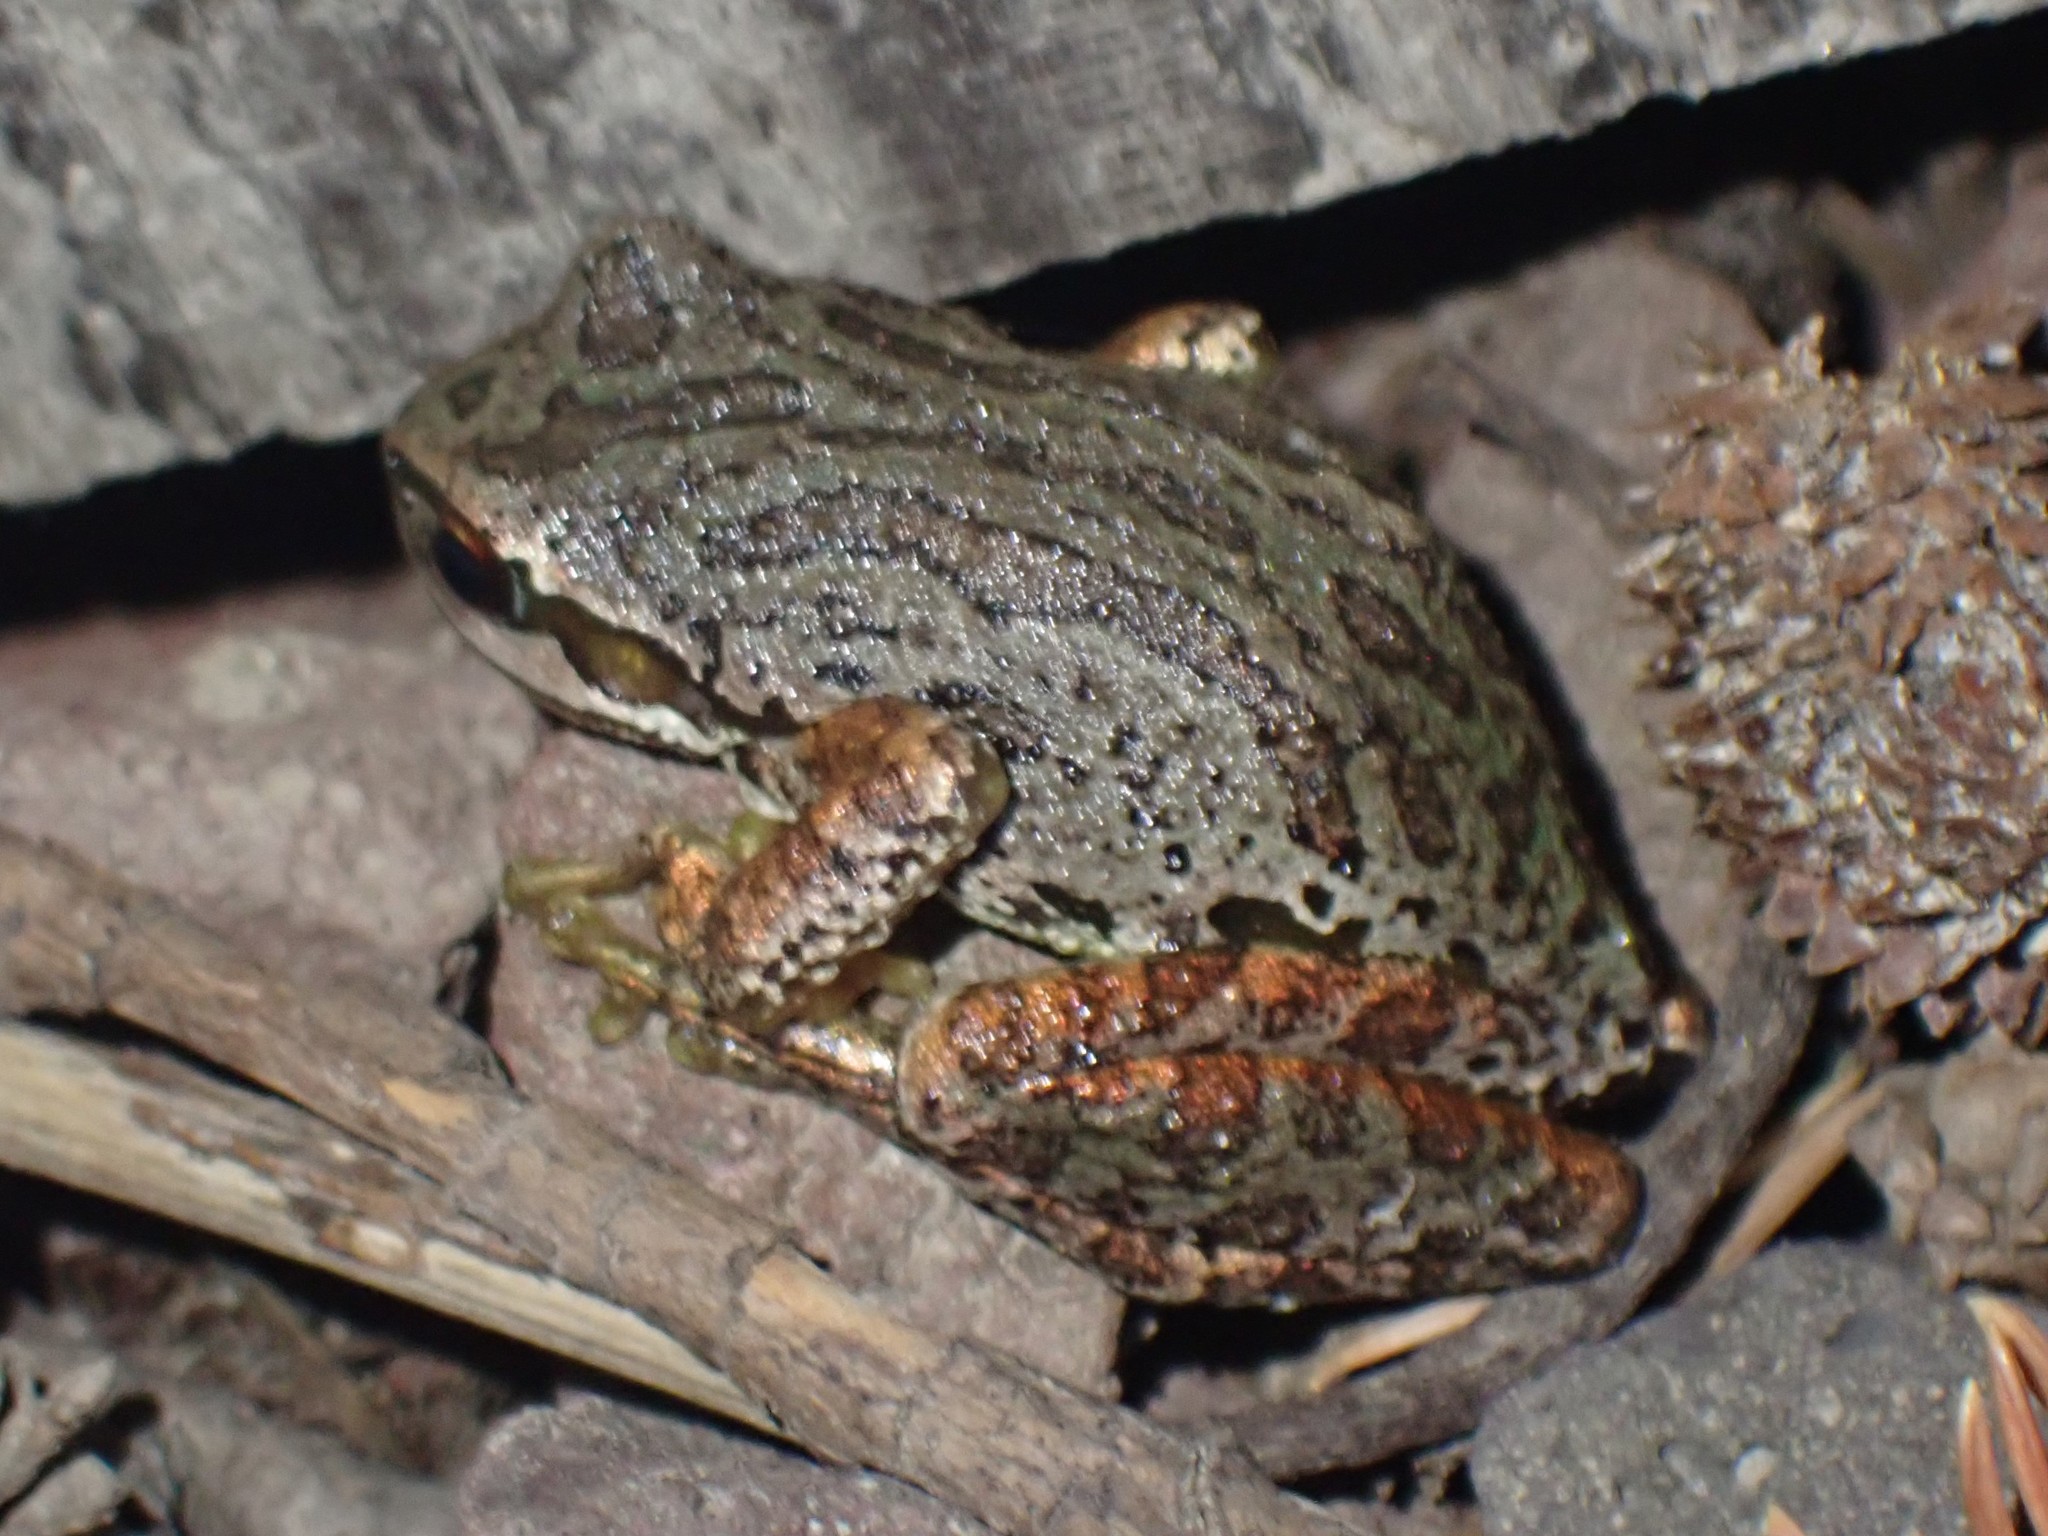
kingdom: Animalia
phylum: Chordata
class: Amphibia
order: Anura
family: Hylidae
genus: Pseudacris
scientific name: Pseudacris regilla
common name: Pacific chorus frog
